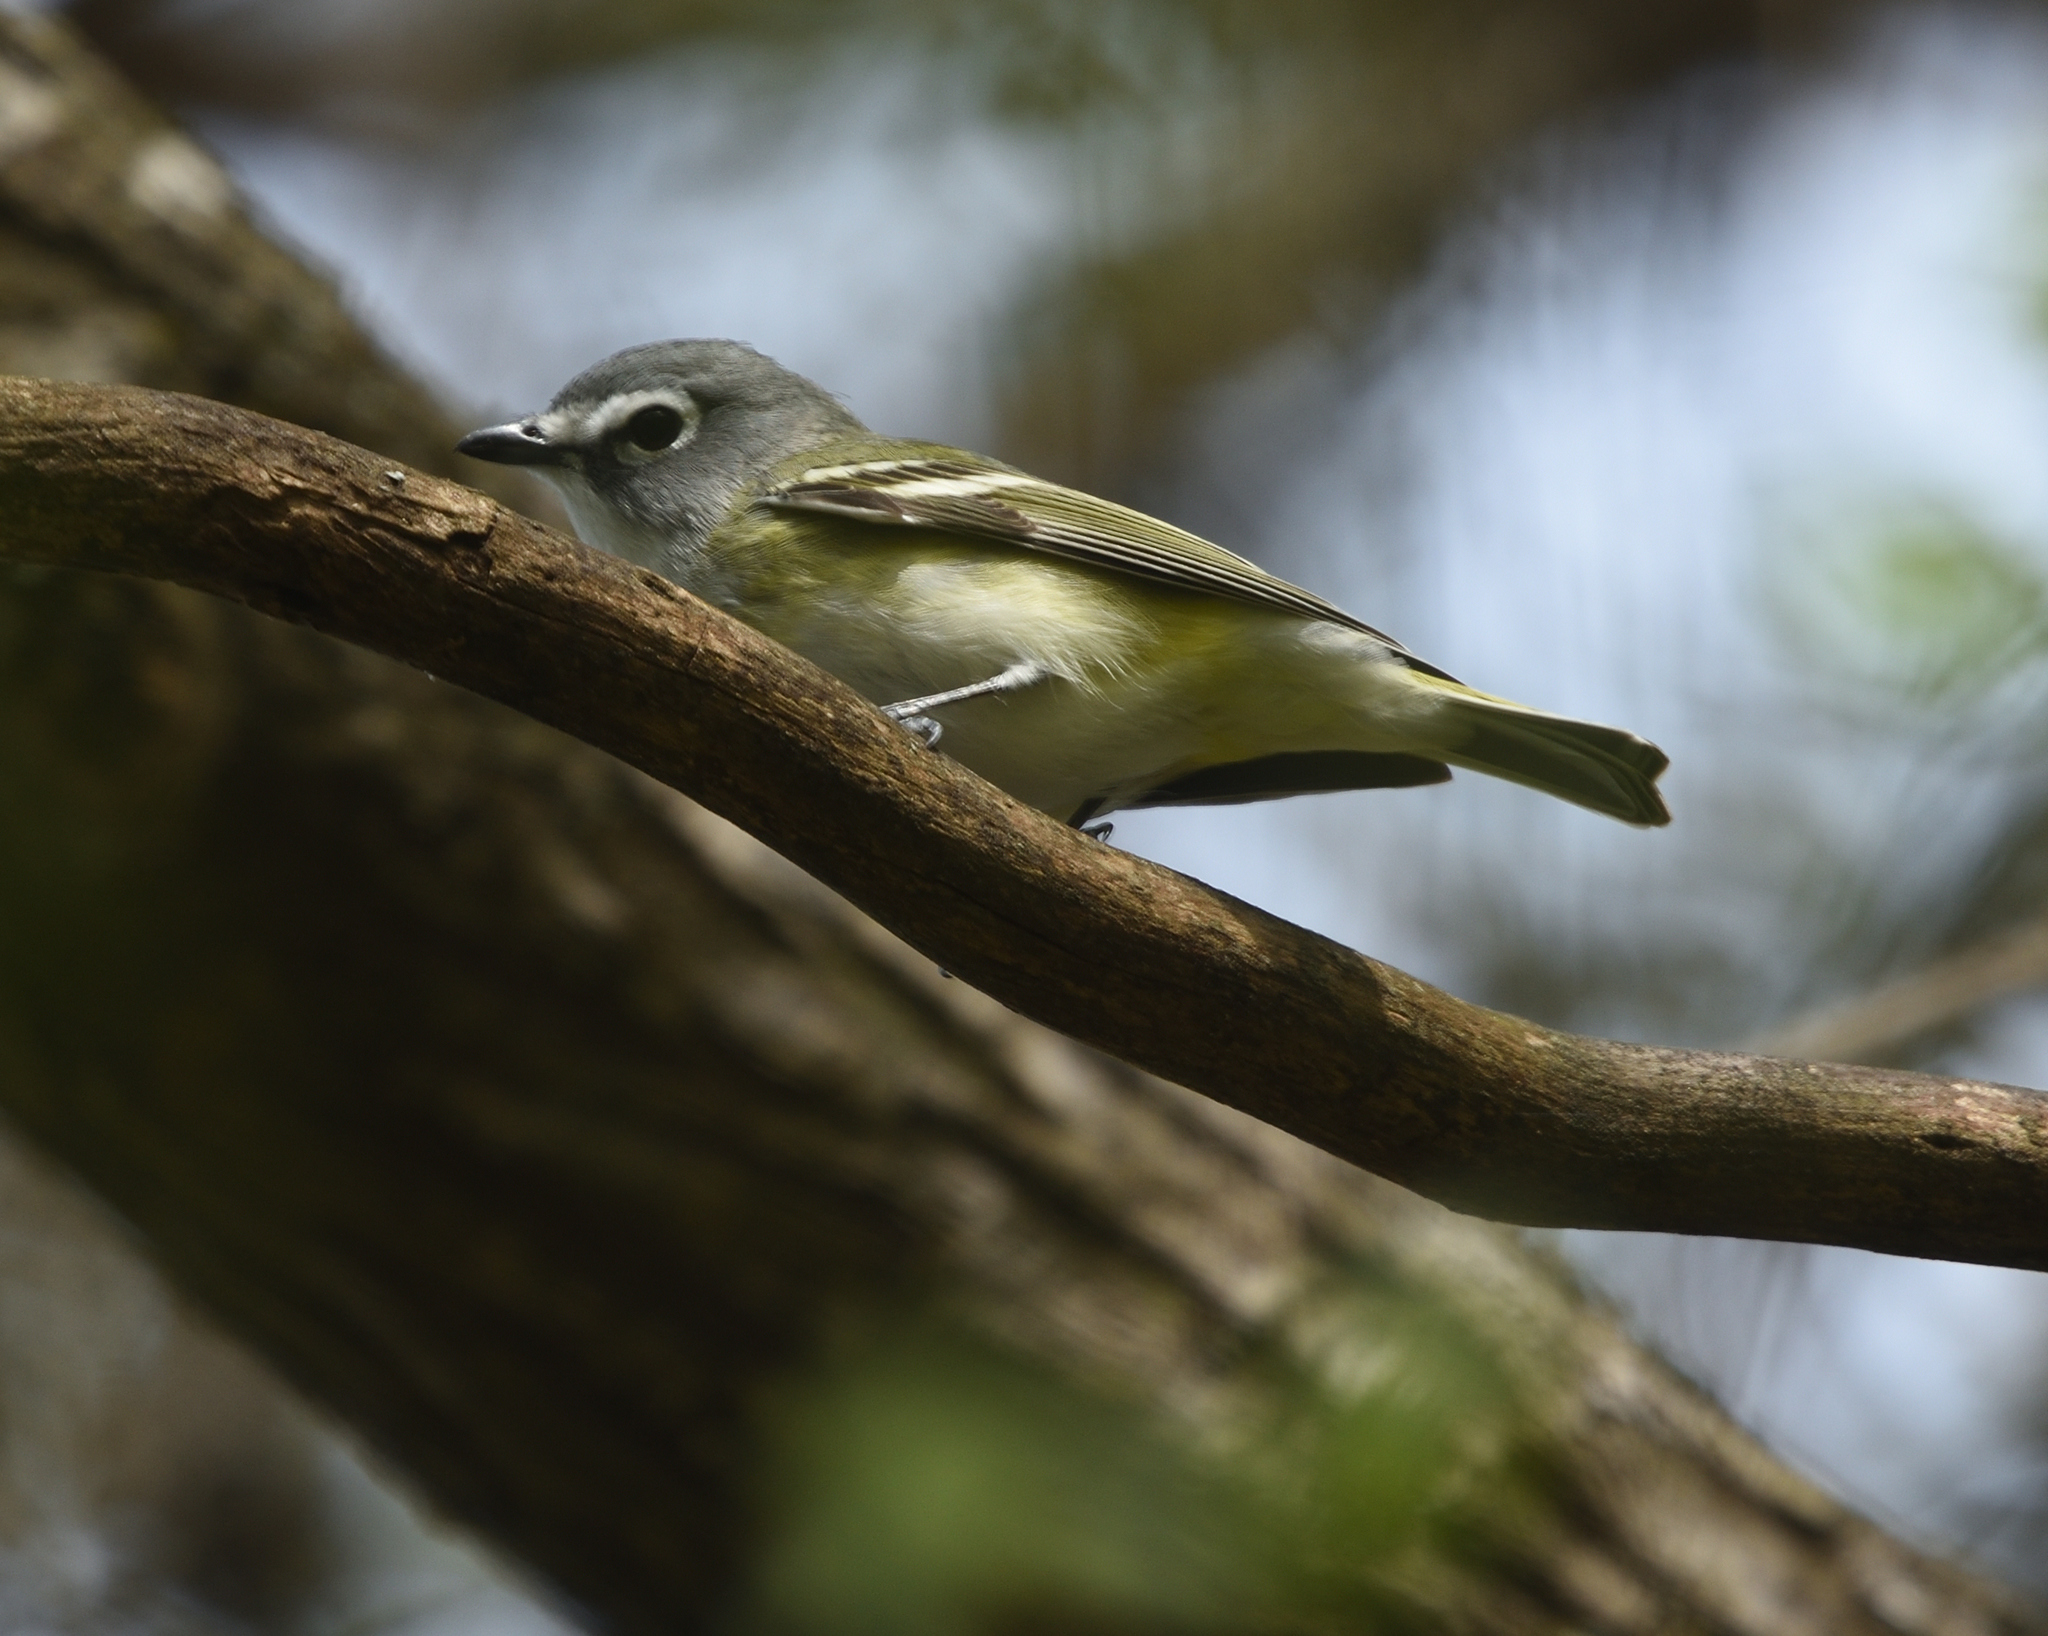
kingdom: Animalia
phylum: Chordata
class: Aves
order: Passeriformes
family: Vireonidae
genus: Vireo
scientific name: Vireo solitarius
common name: Blue-headed vireo
